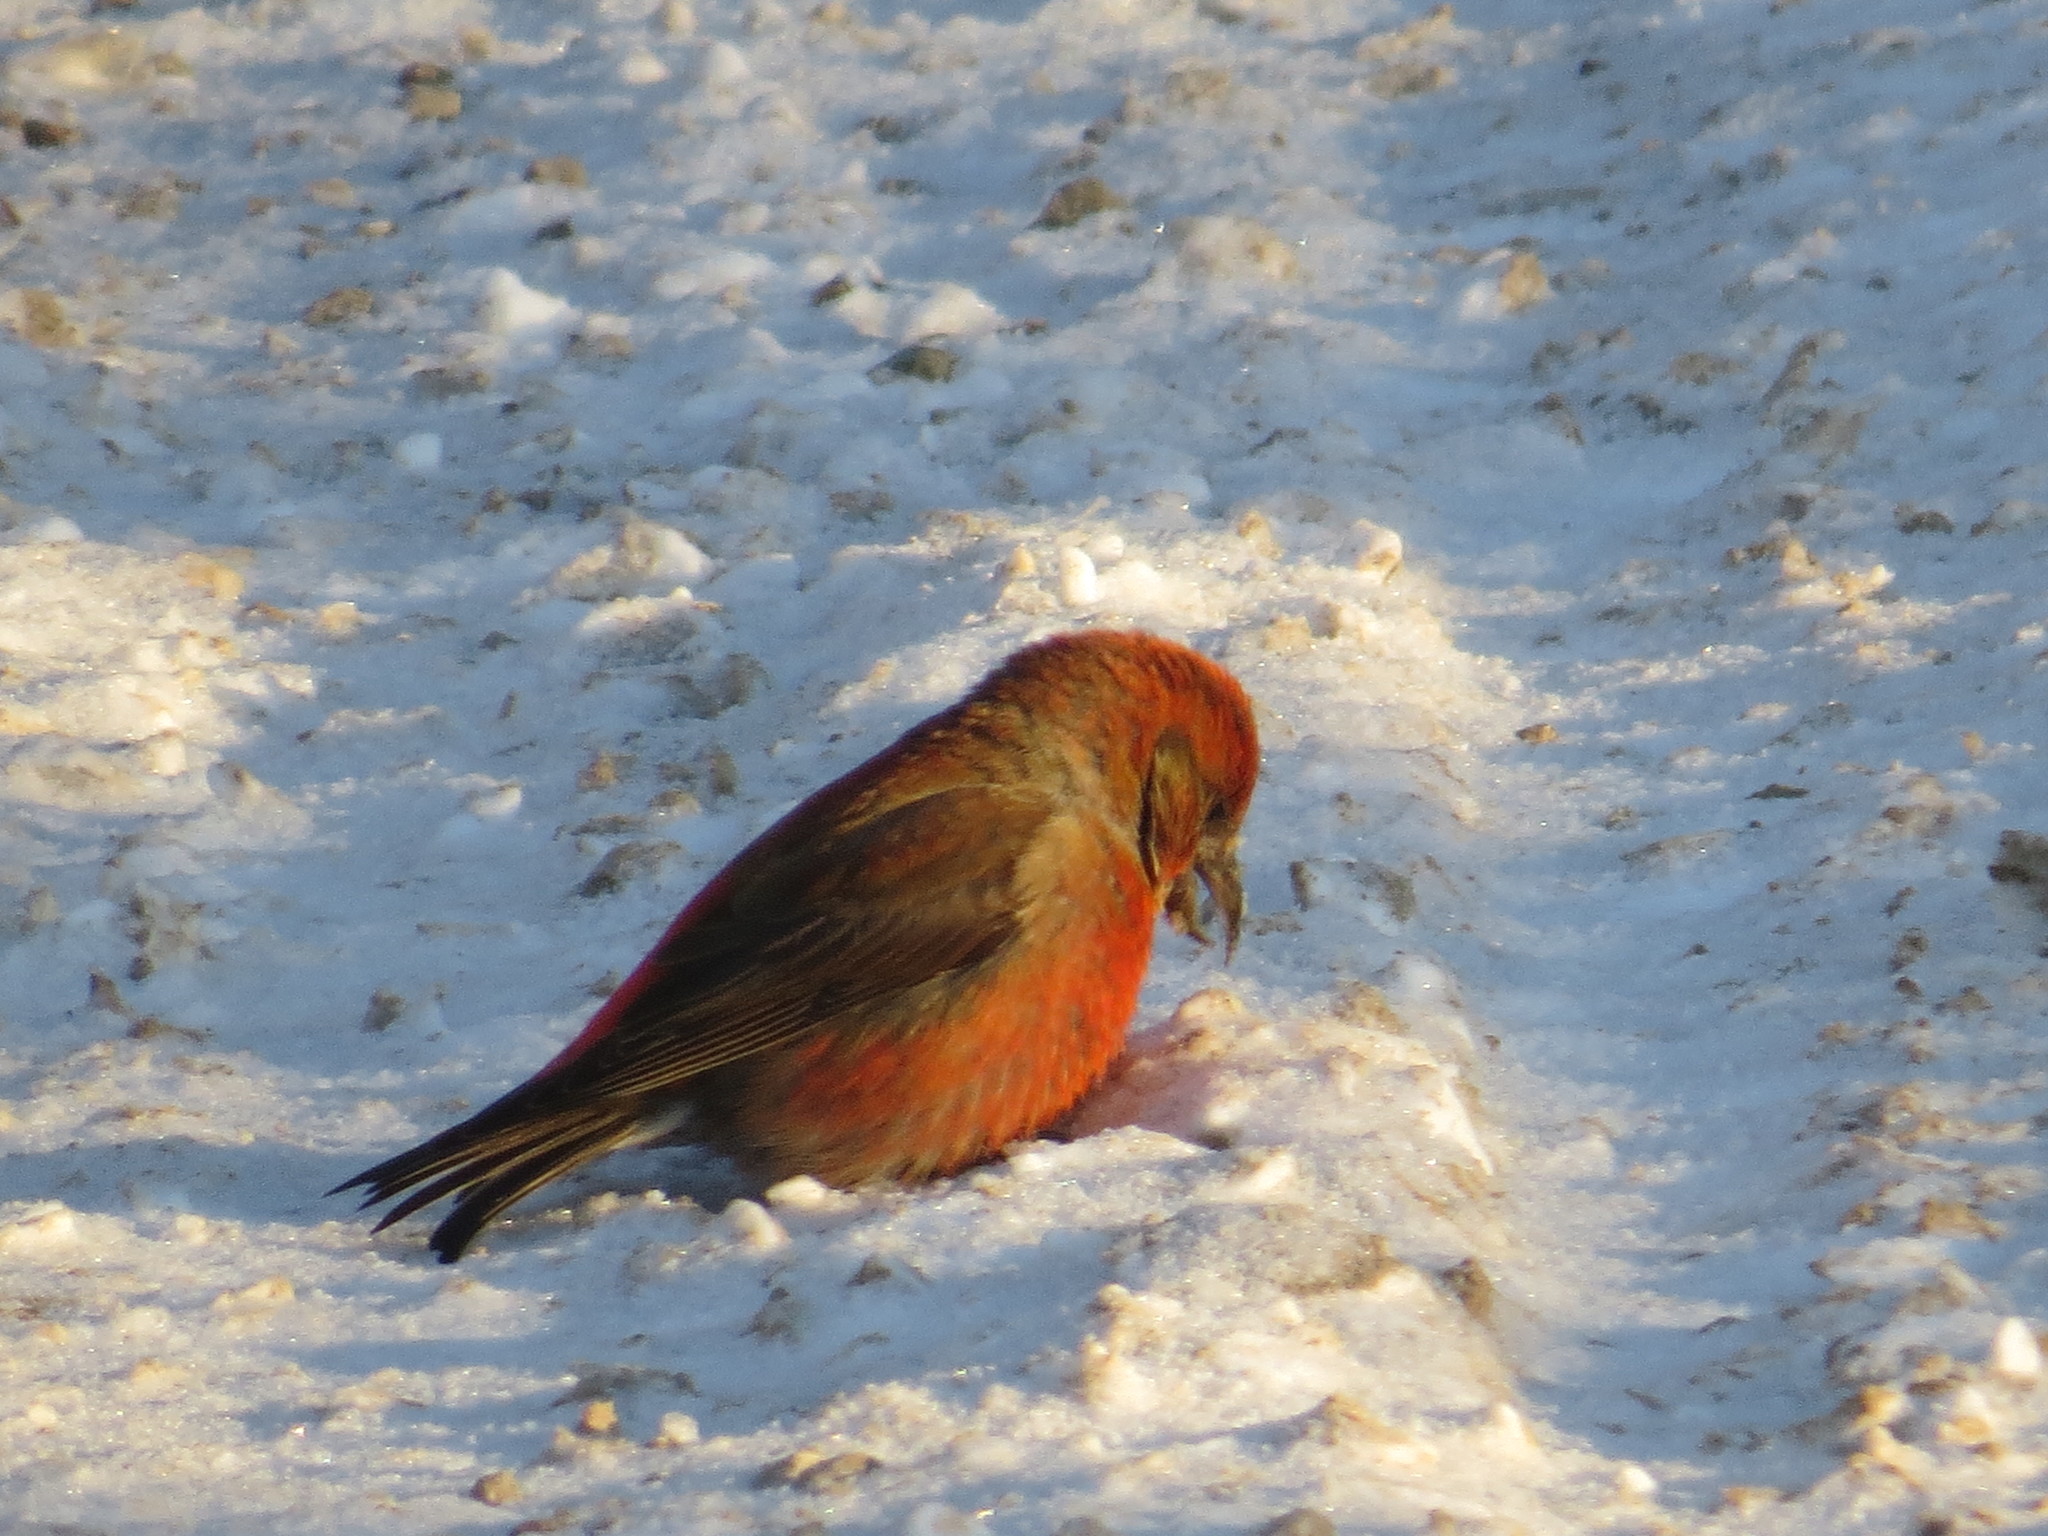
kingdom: Animalia
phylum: Chordata
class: Aves
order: Passeriformes
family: Fringillidae
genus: Loxia
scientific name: Loxia curvirostra
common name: Red crossbill
